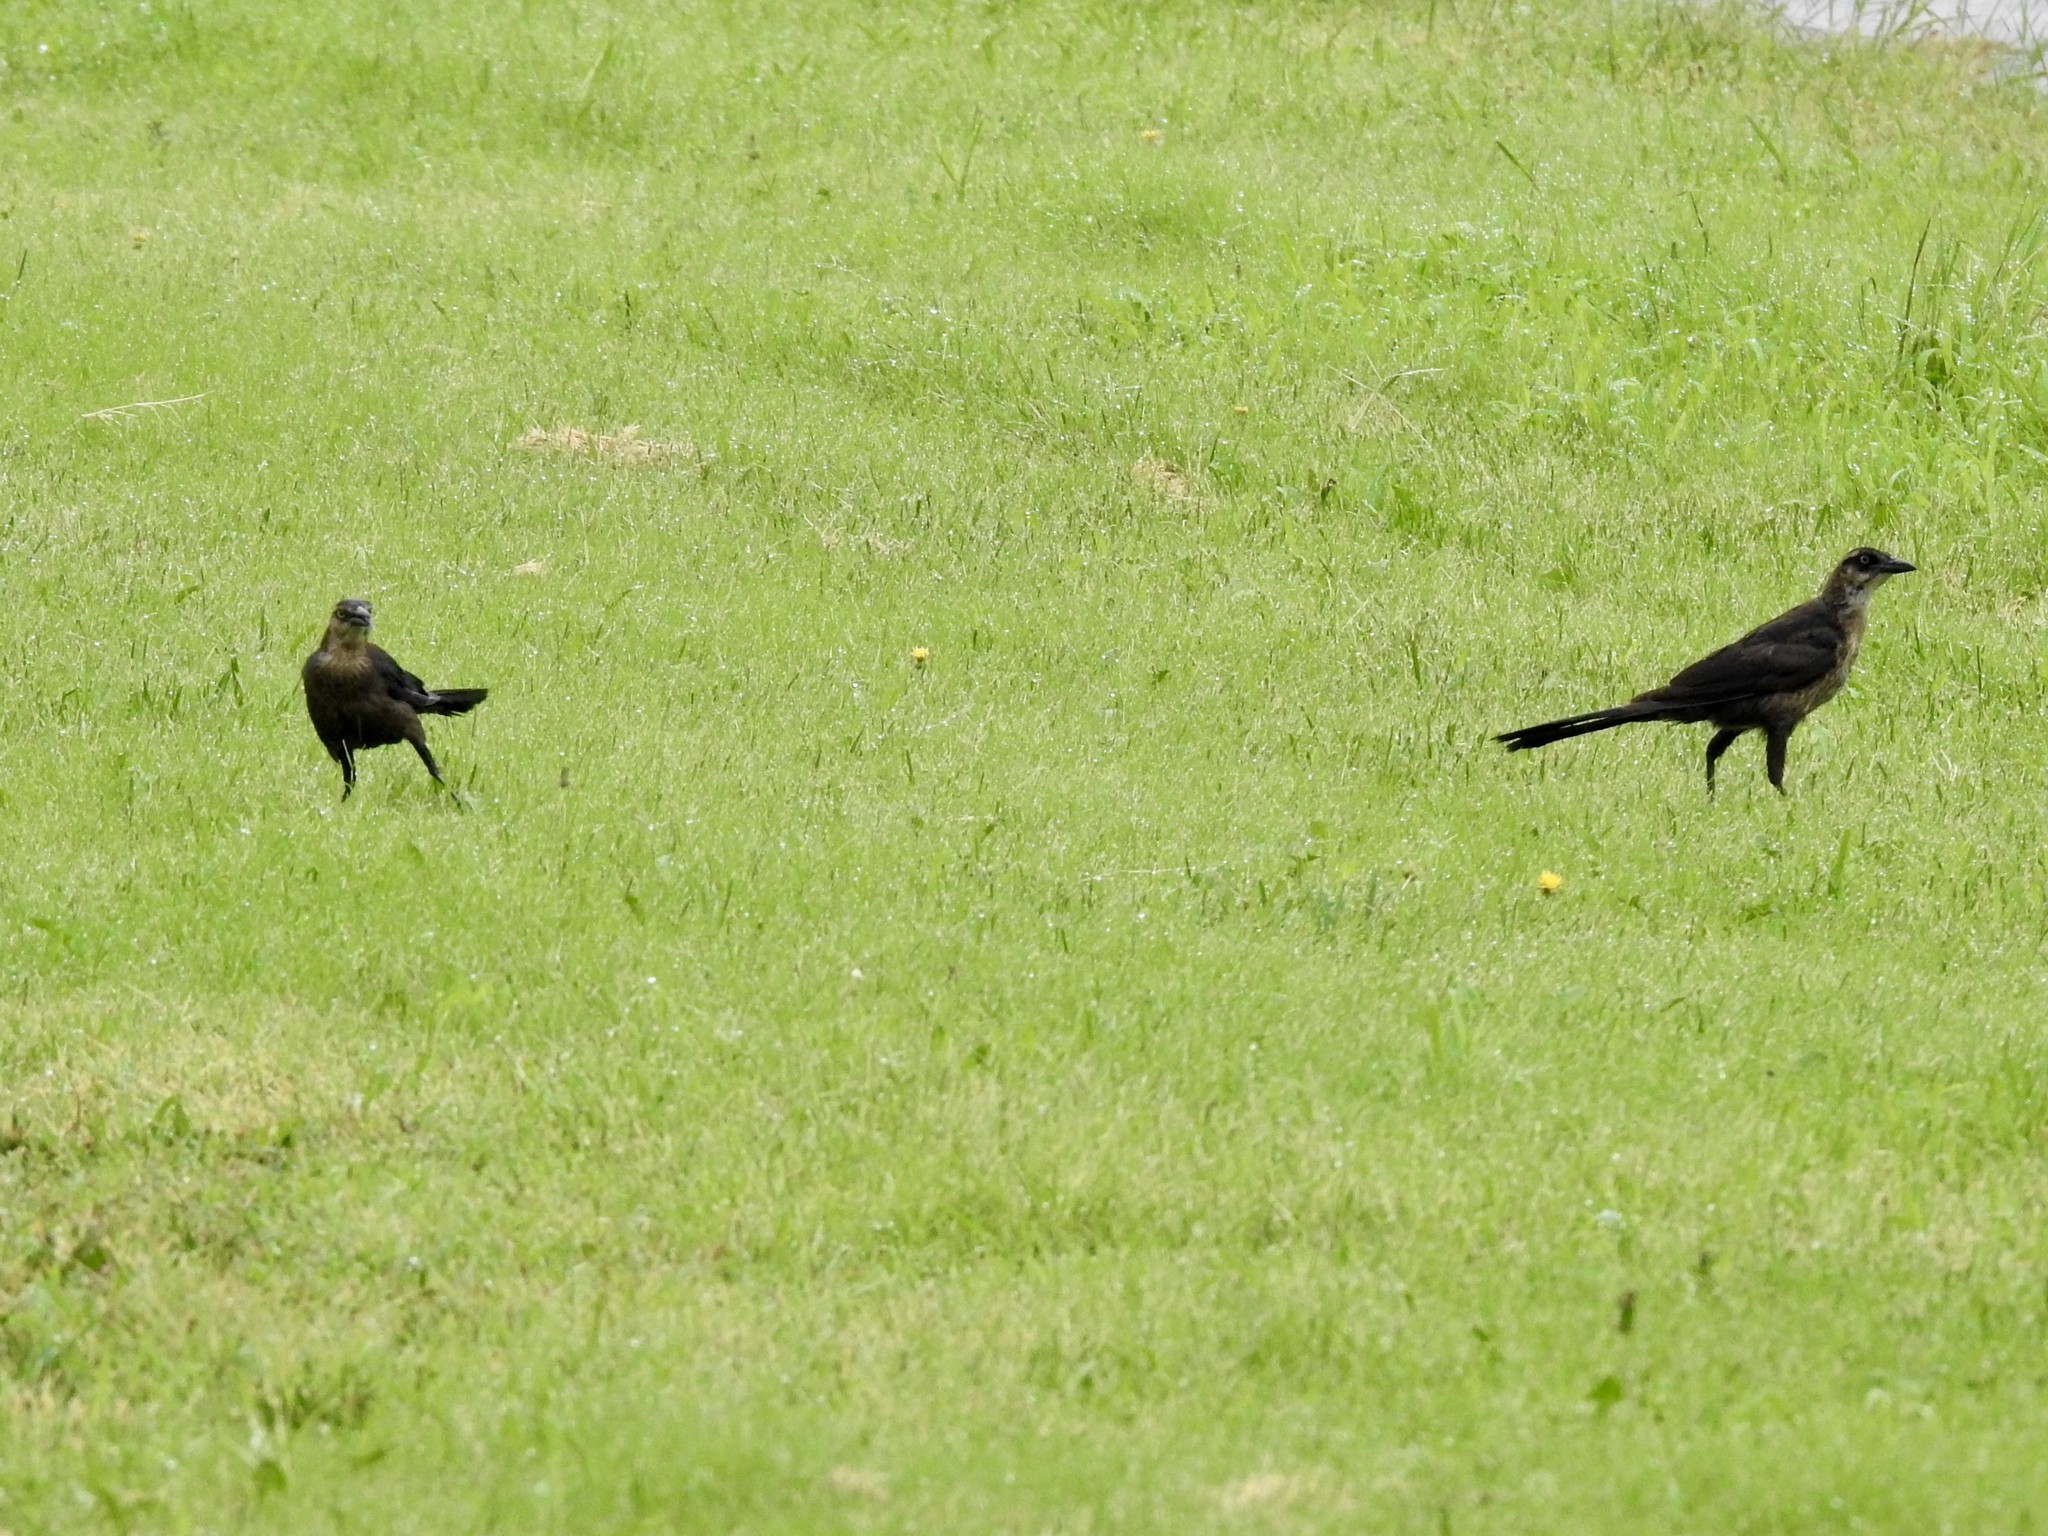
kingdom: Animalia
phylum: Chordata
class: Aves
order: Passeriformes
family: Icteridae
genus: Quiscalus
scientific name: Quiscalus mexicanus
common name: Great-tailed grackle
